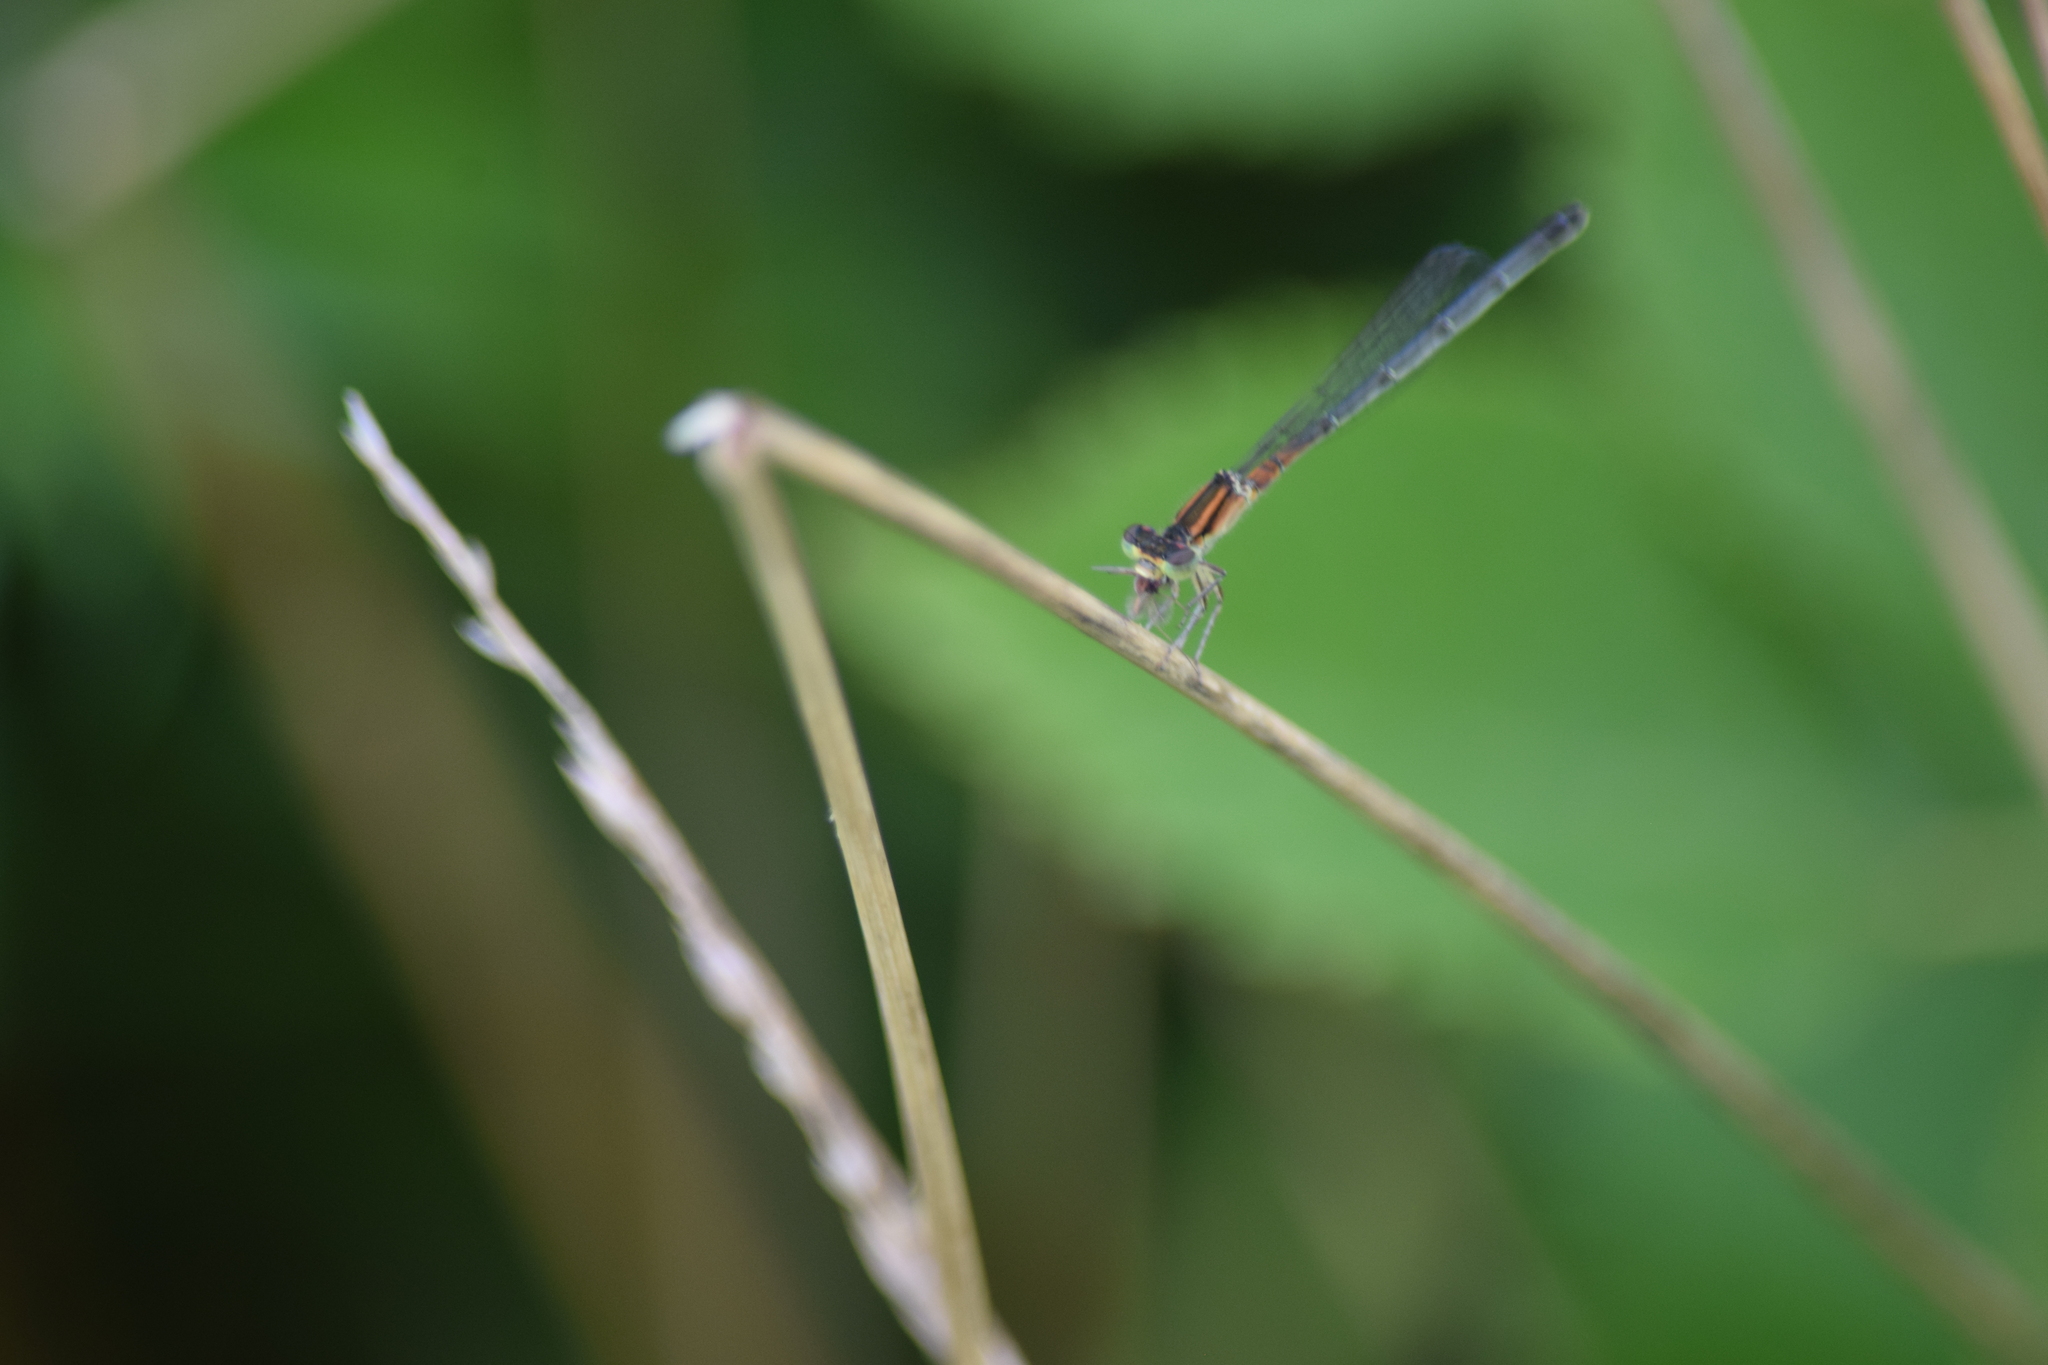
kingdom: Animalia
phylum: Arthropoda
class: Insecta
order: Odonata
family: Coenagrionidae
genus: Ischnura
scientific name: Ischnura verticalis
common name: Eastern forktail
